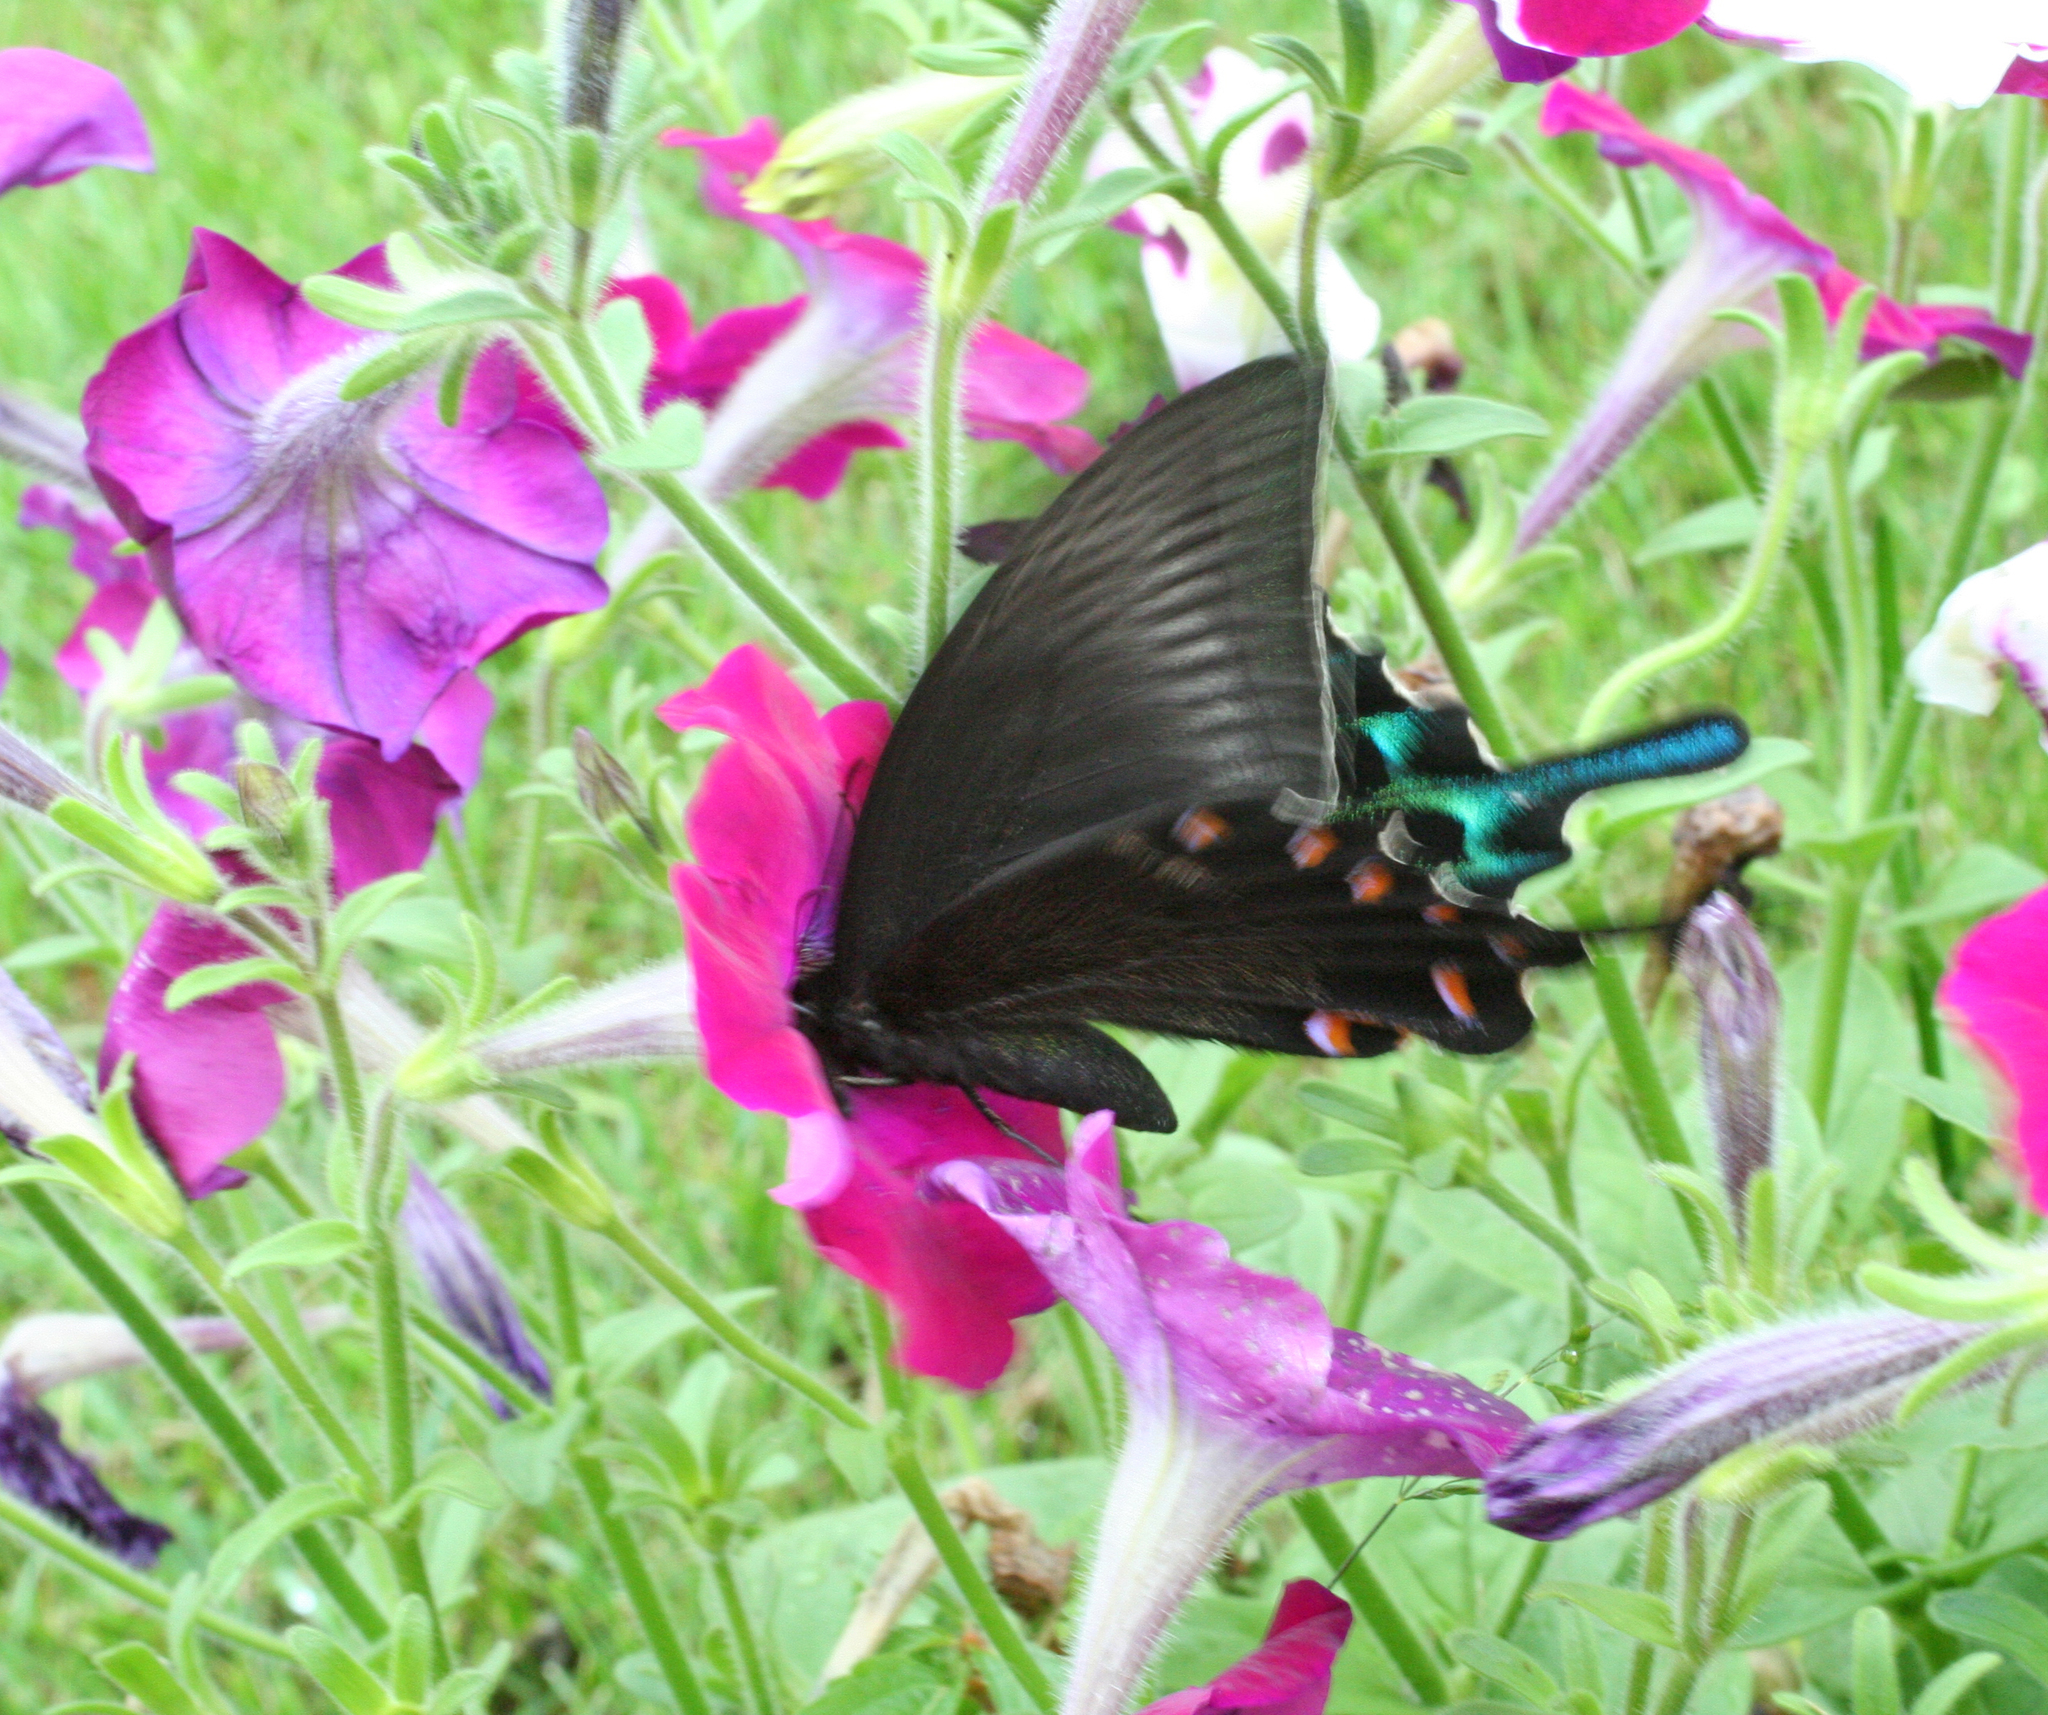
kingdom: Animalia
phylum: Arthropoda
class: Insecta
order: Lepidoptera
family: Papilionidae
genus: Papilio
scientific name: Papilio maackii
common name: Alpine black swallowtail
